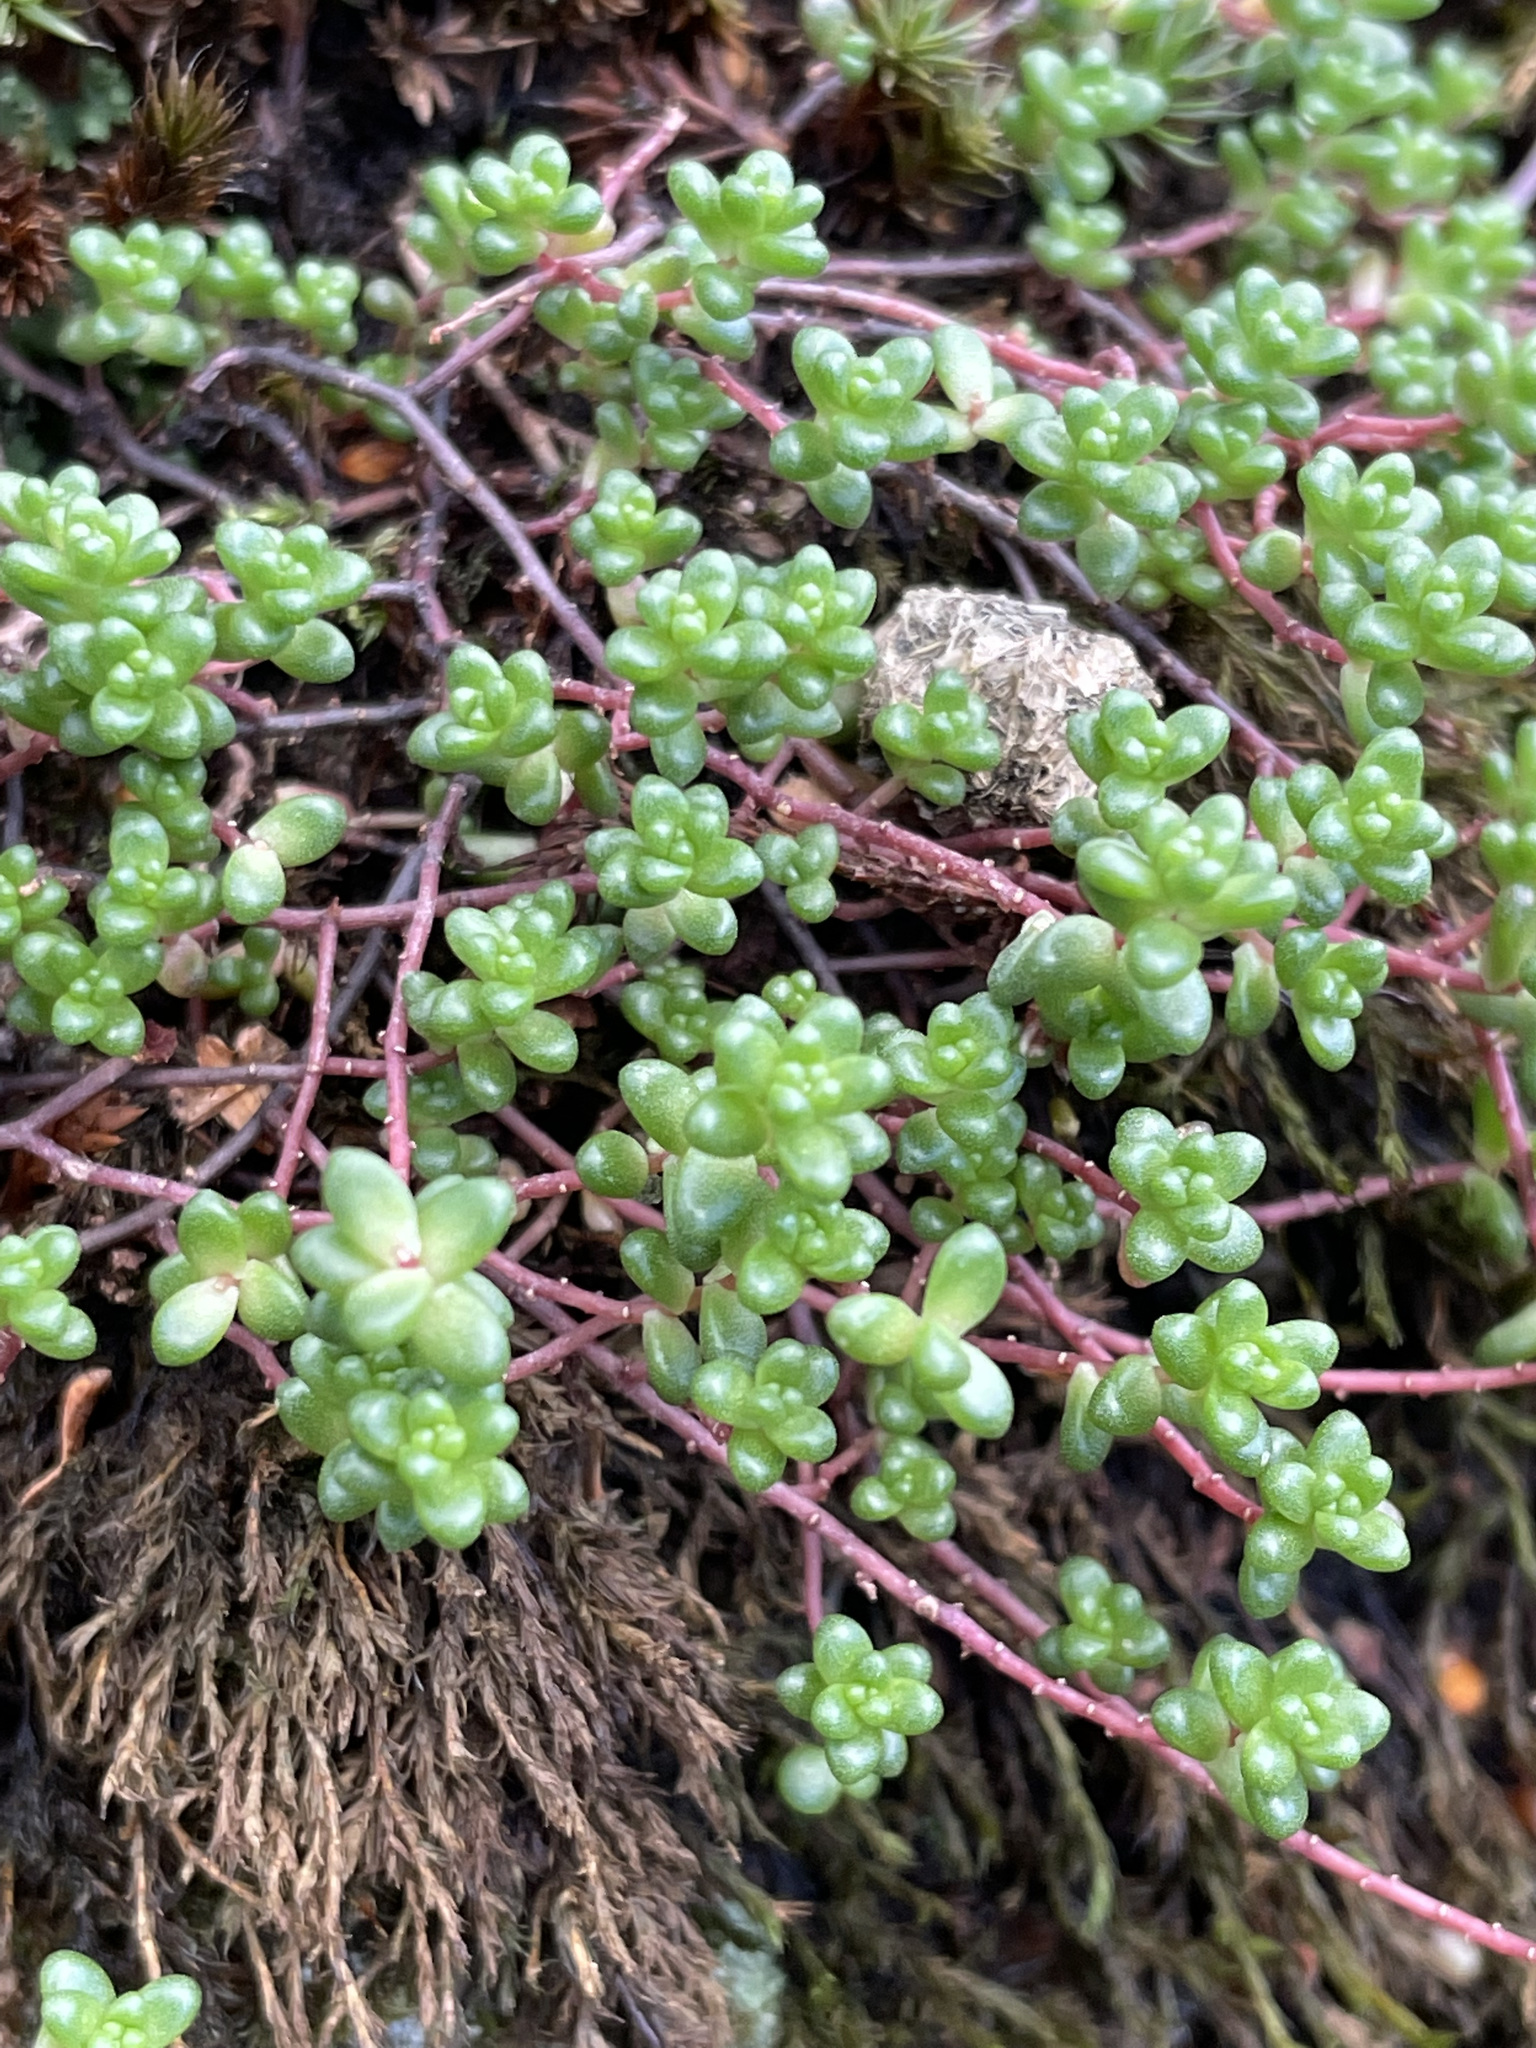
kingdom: Plantae
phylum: Tracheophyta
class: Magnoliopsida
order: Saxifragales
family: Crassulaceae
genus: Sedum
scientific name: Sedum anglicum
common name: English stonecrop
